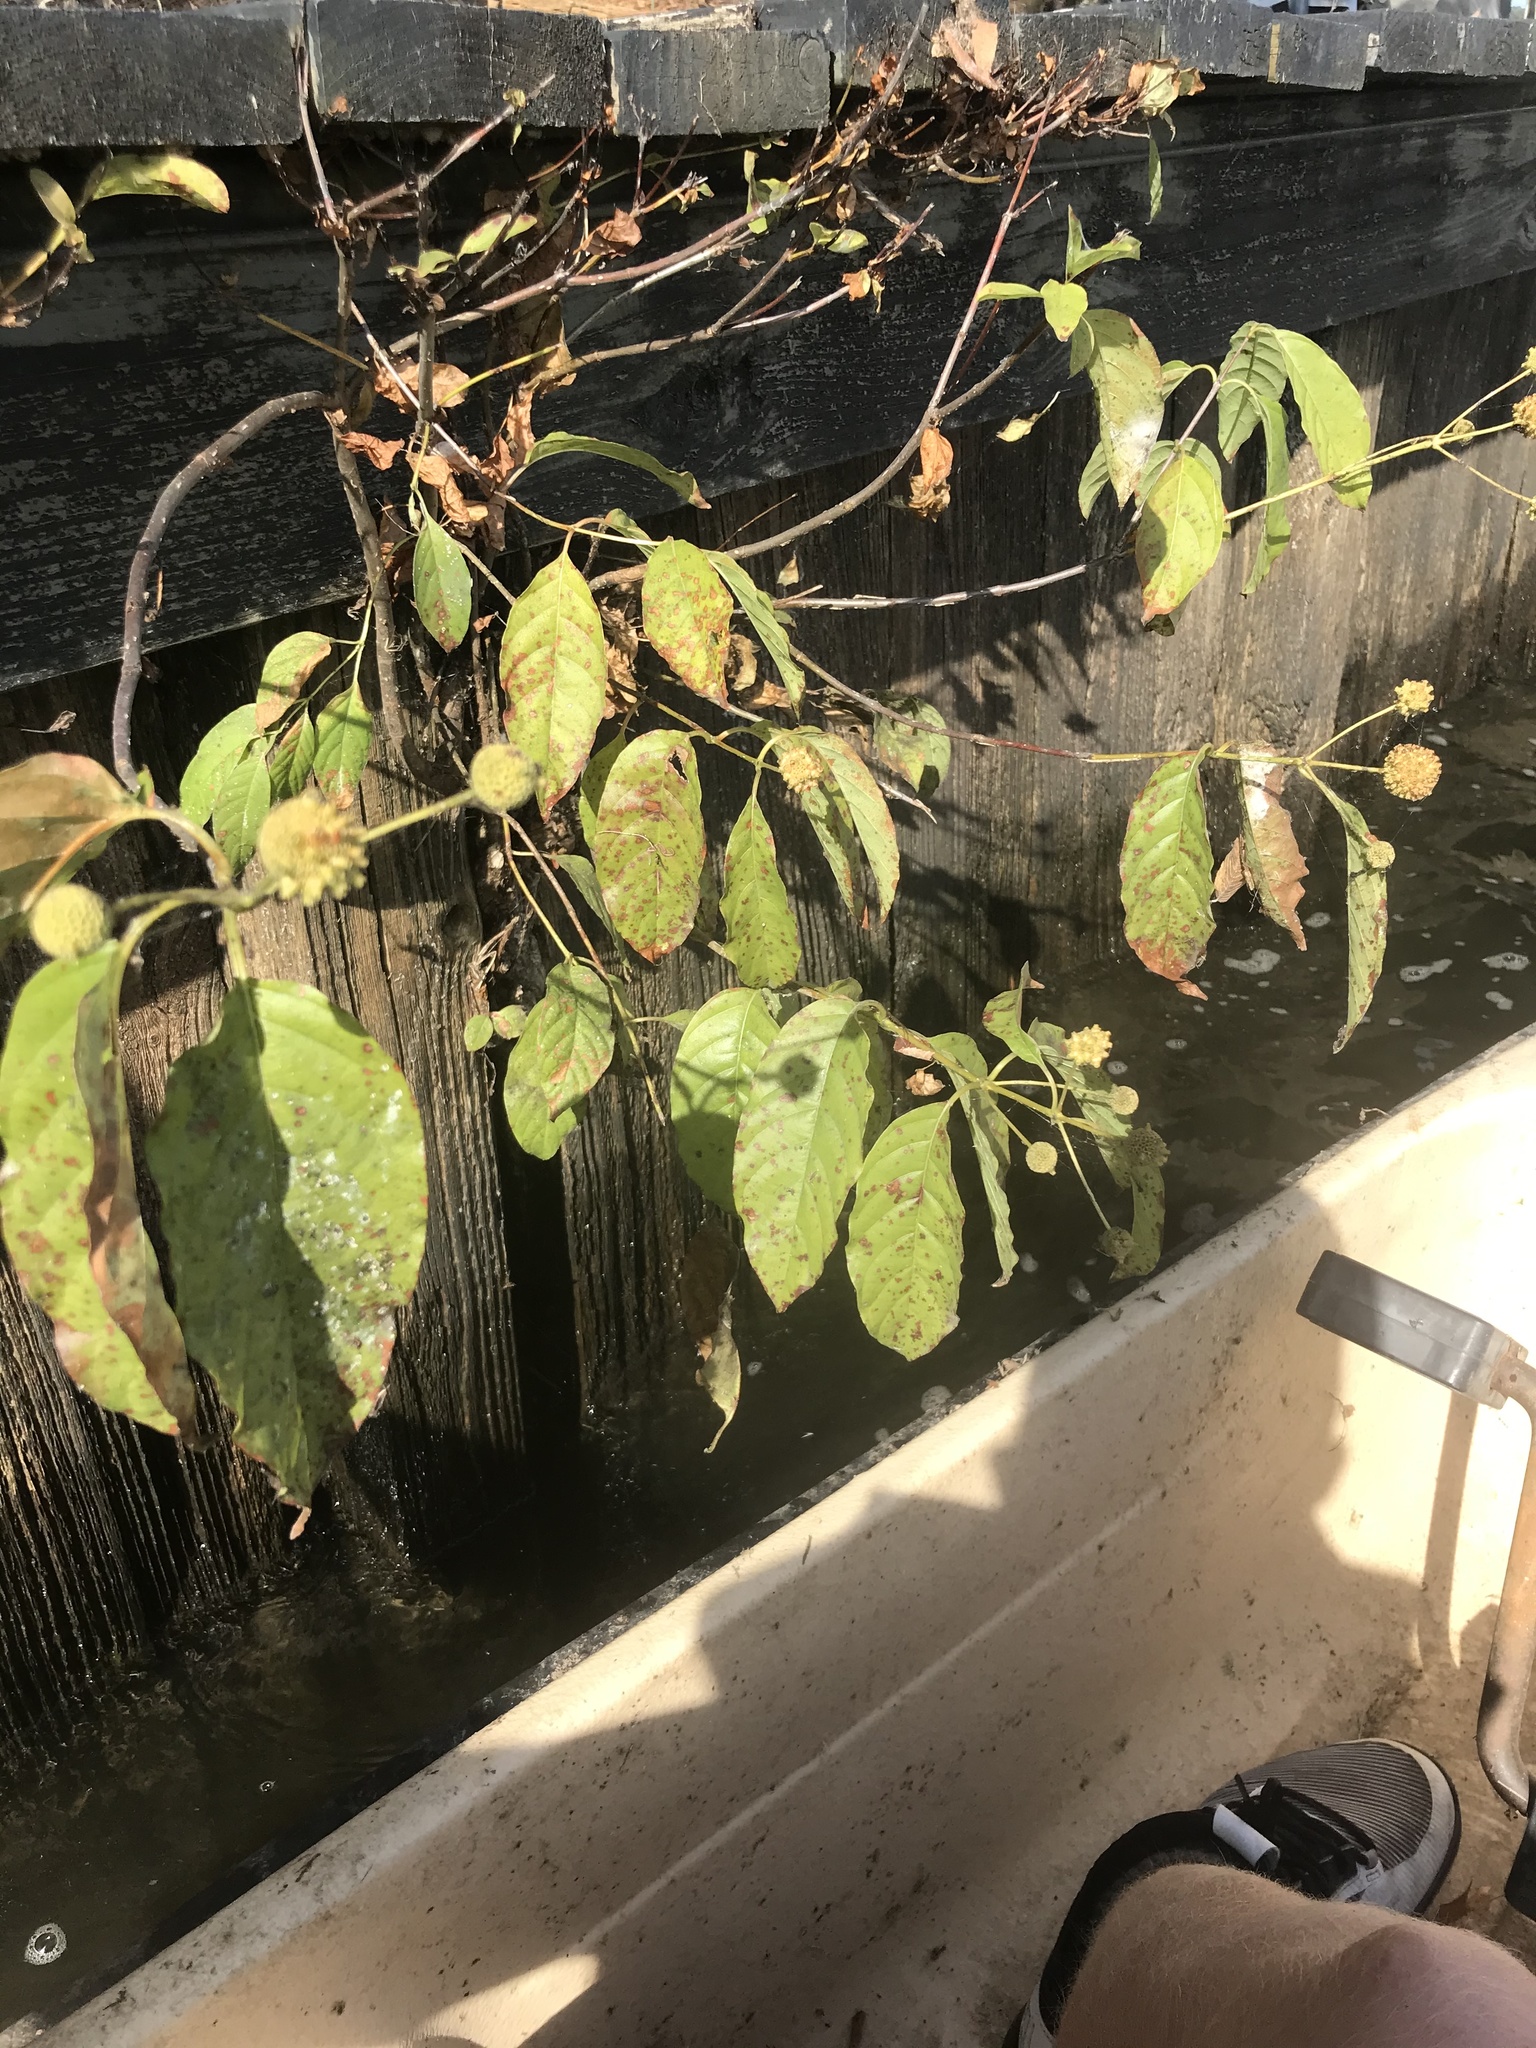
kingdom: Plantae
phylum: Tracheophyta
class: Magnoliopsida
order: Gentianales
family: Rubiaceae
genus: Cephalanthus
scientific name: Cephalanthus occidentalis
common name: Button-willow
